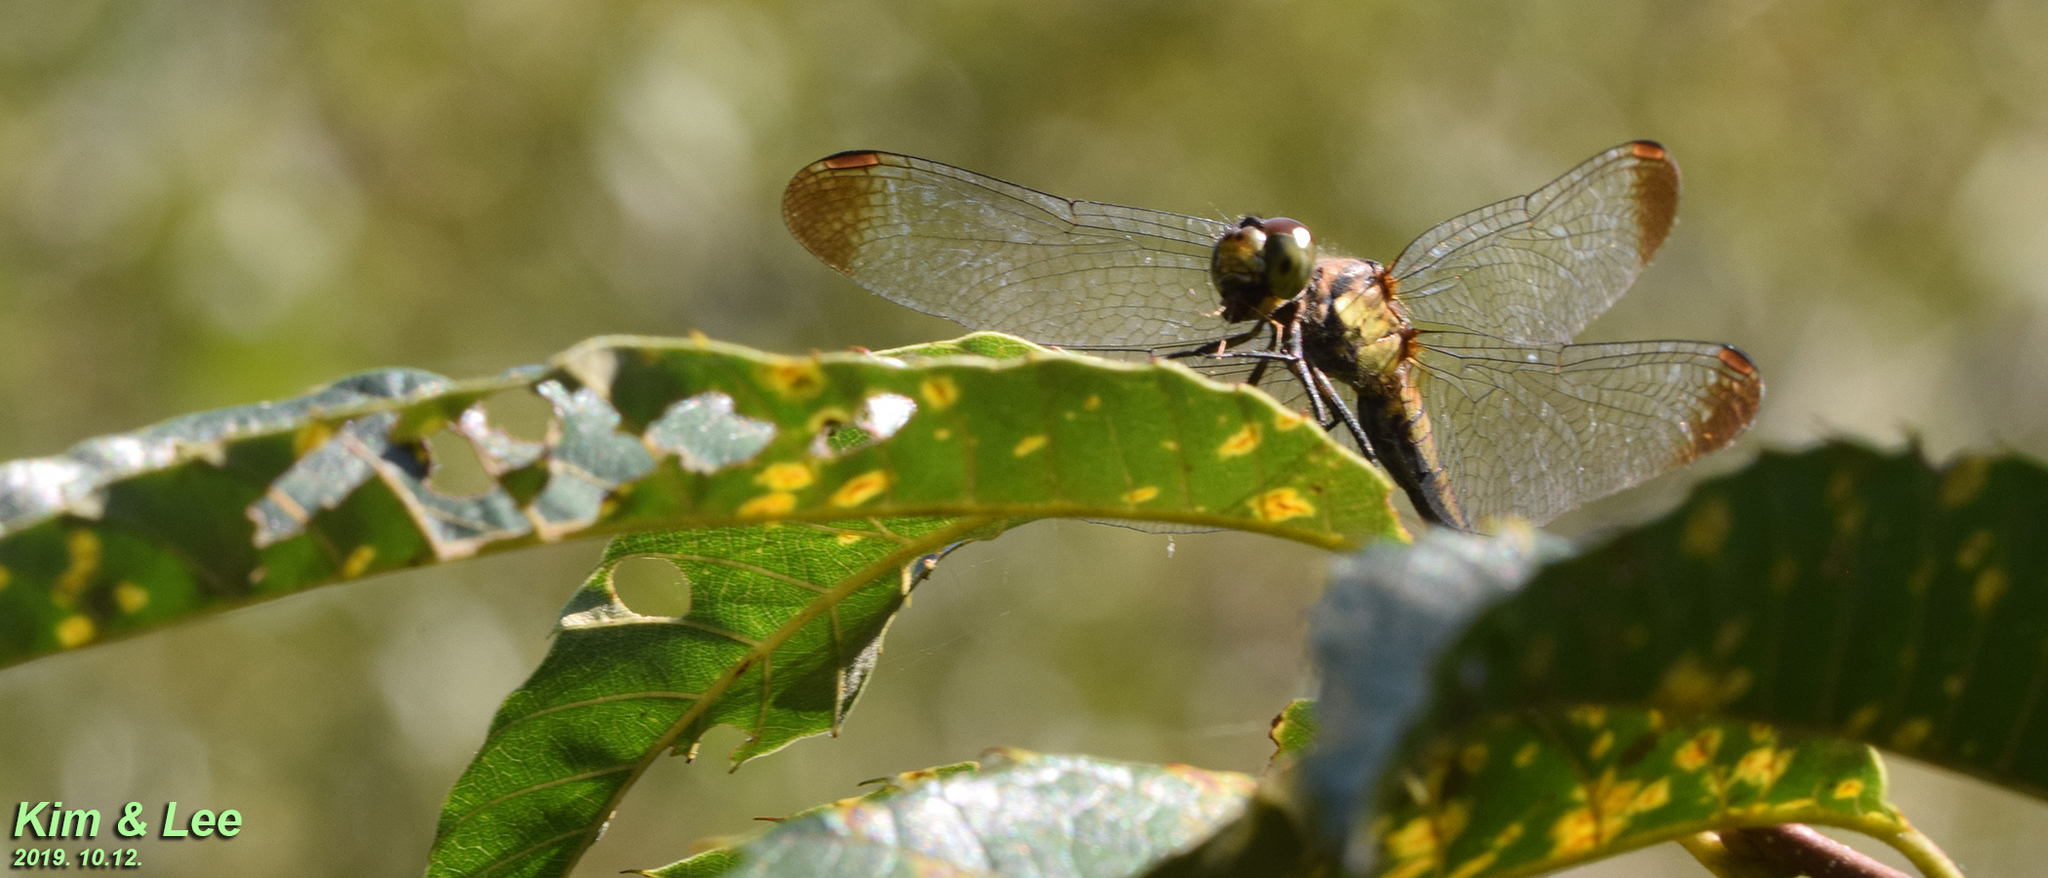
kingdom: Animalia
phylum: Arthropoda
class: Insecta
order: Odonata
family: Libellulidae
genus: Sympetrum
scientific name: Sympetrum eroticum
